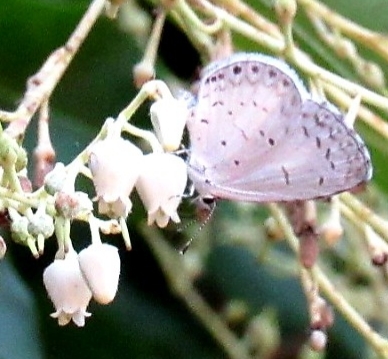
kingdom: Animalia
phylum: Arthropoda
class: Insecta
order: Lepidoptera
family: Lycaenidae
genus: Cyaniris
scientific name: Cyaniris neglecta
